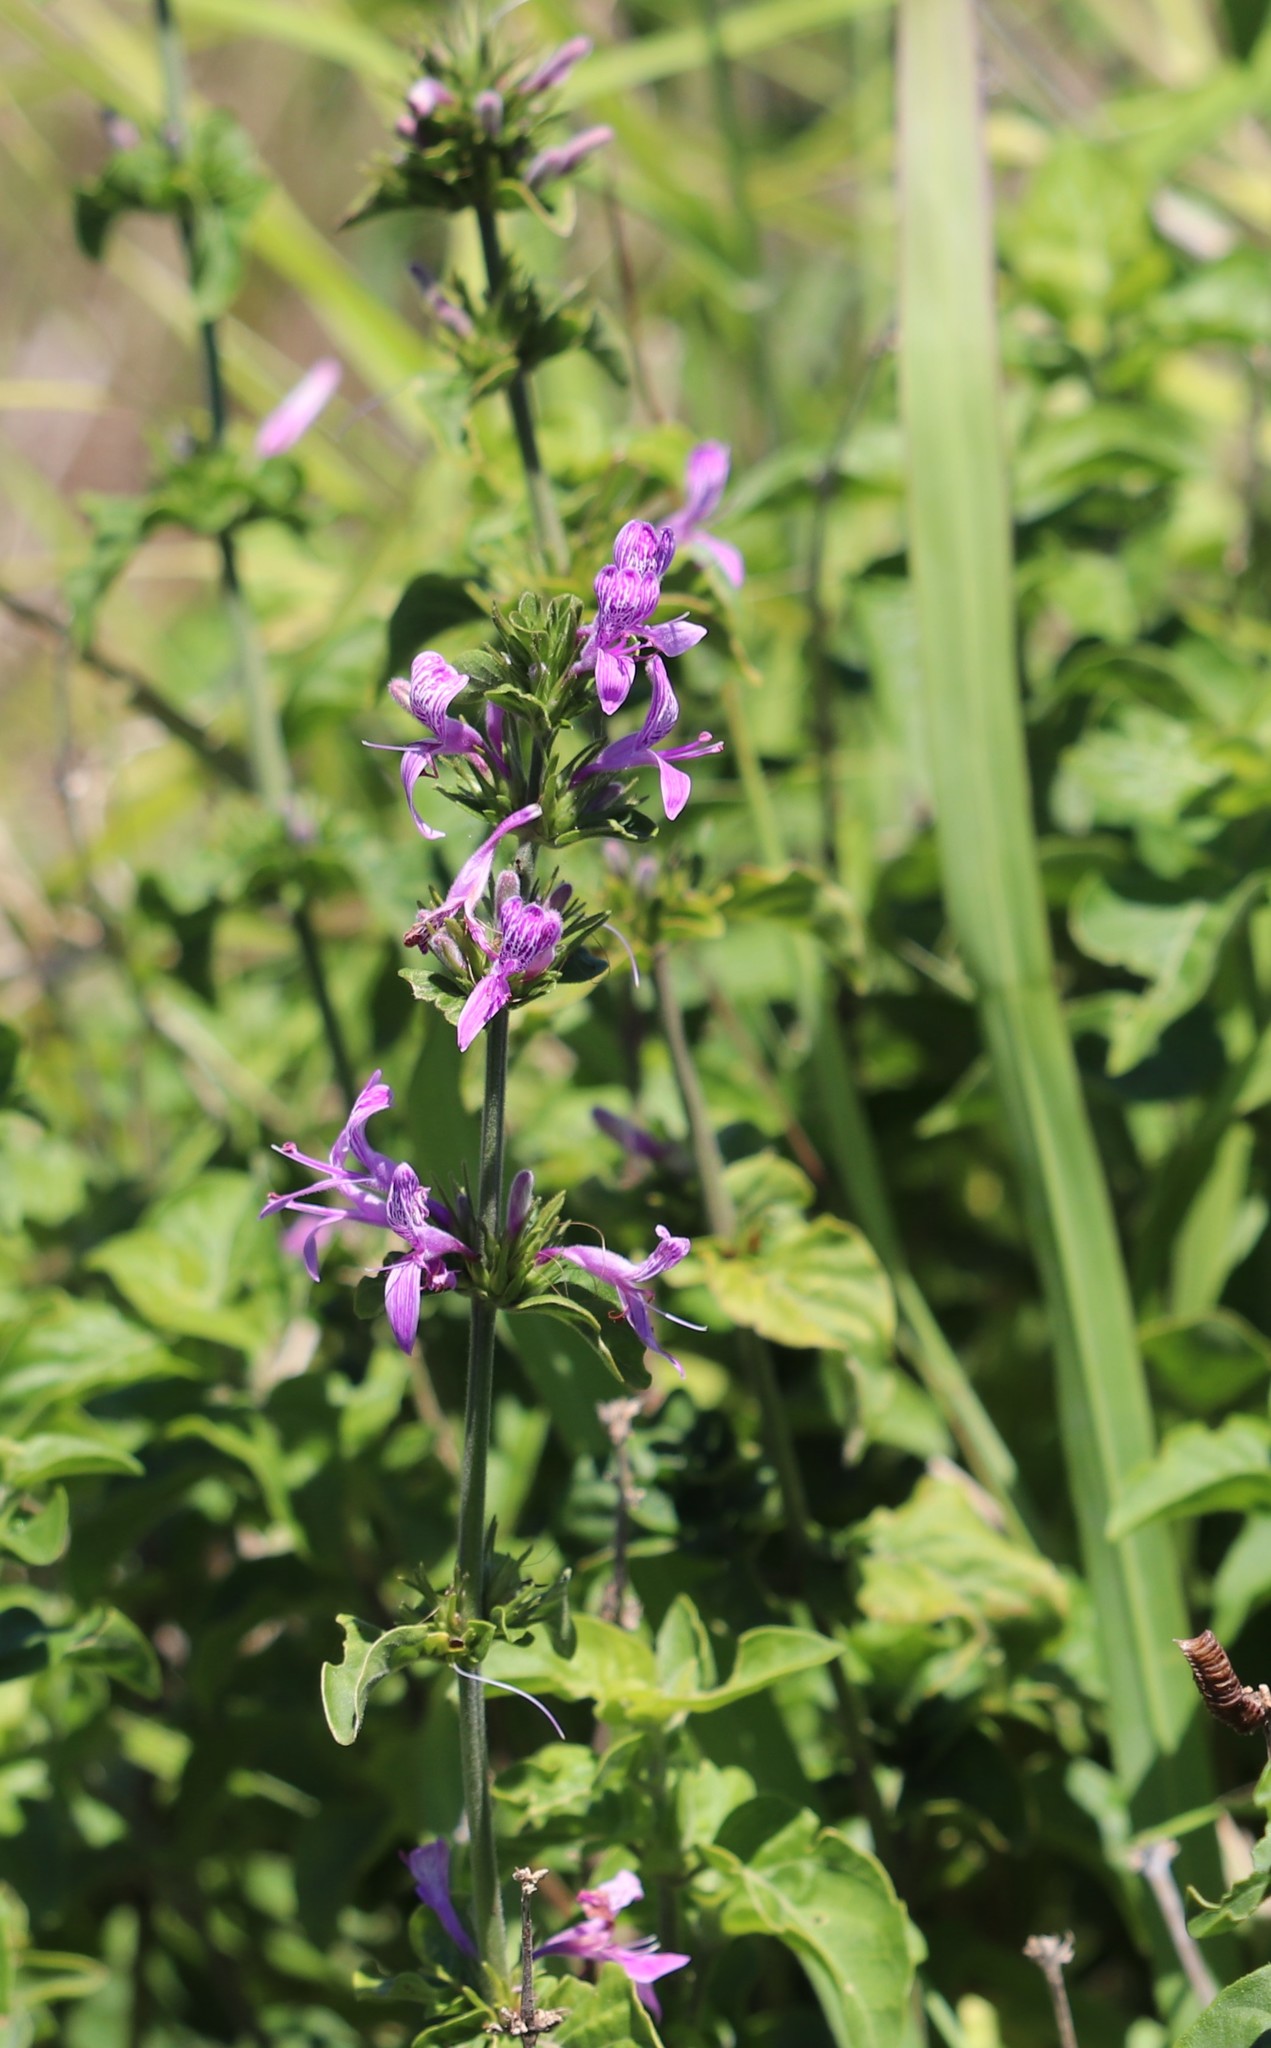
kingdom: Plantae
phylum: Tracheophyta
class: Magnoliopsida
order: Lamiales
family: Acanthaceae
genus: Hypoestes
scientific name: Hypoestes aristata
